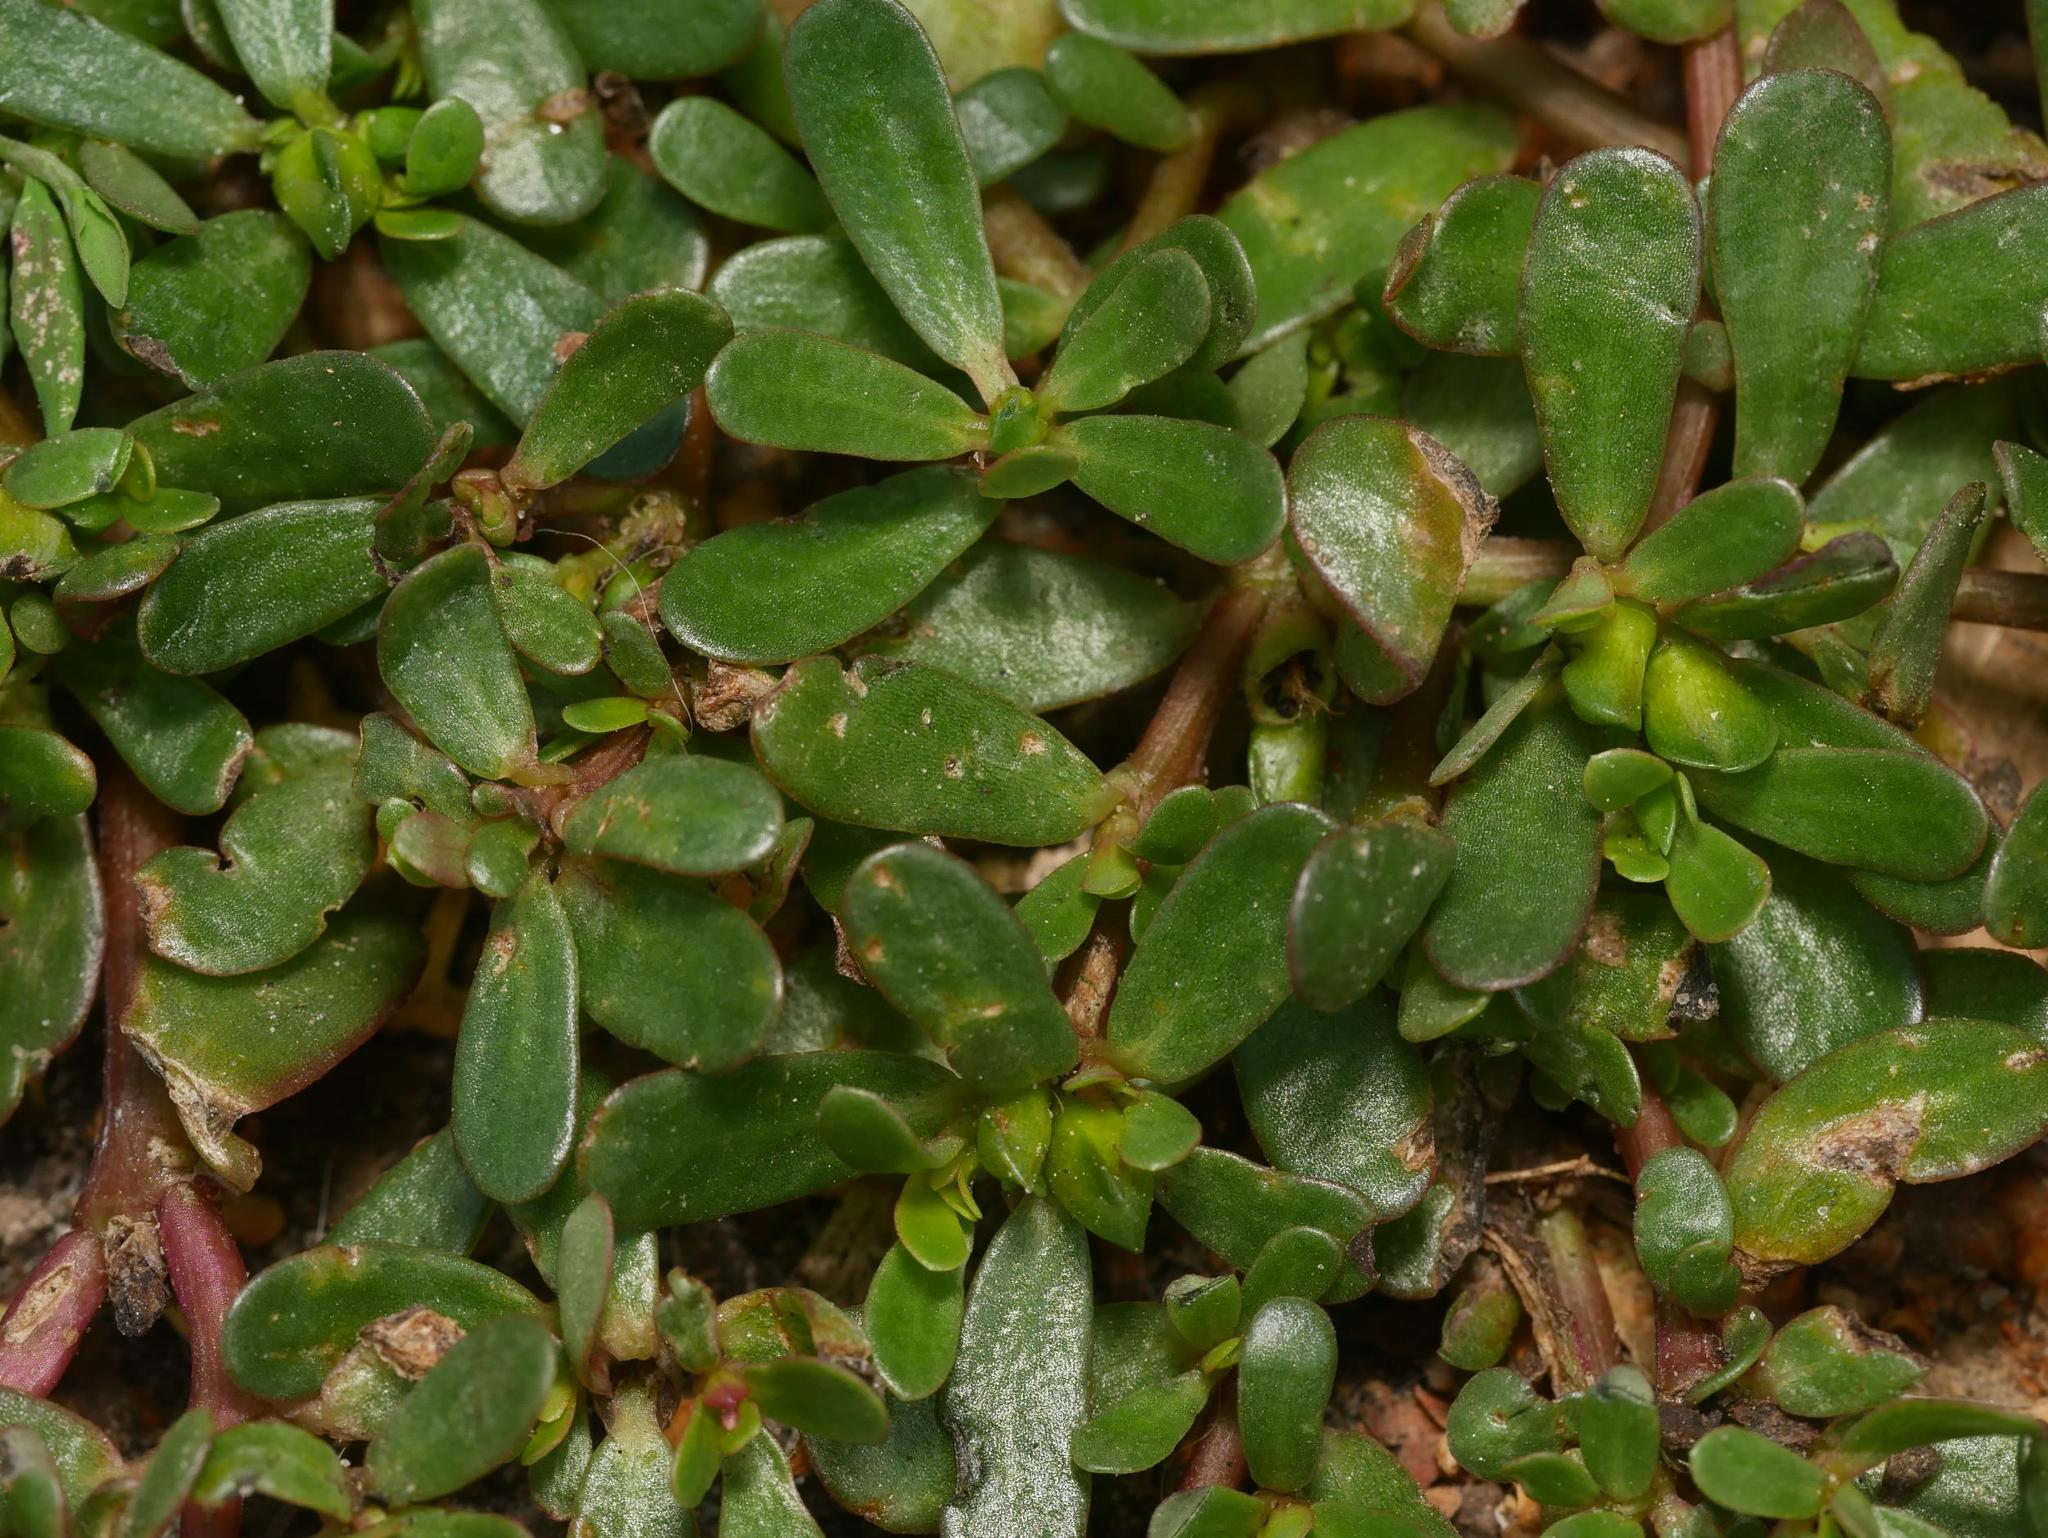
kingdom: Plantae
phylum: Tracheophyta
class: Magnoliopsida
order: Caryophyllales
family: Portulacaceae
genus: Portulaca
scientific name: Portulaca oleracea
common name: Common purslane
